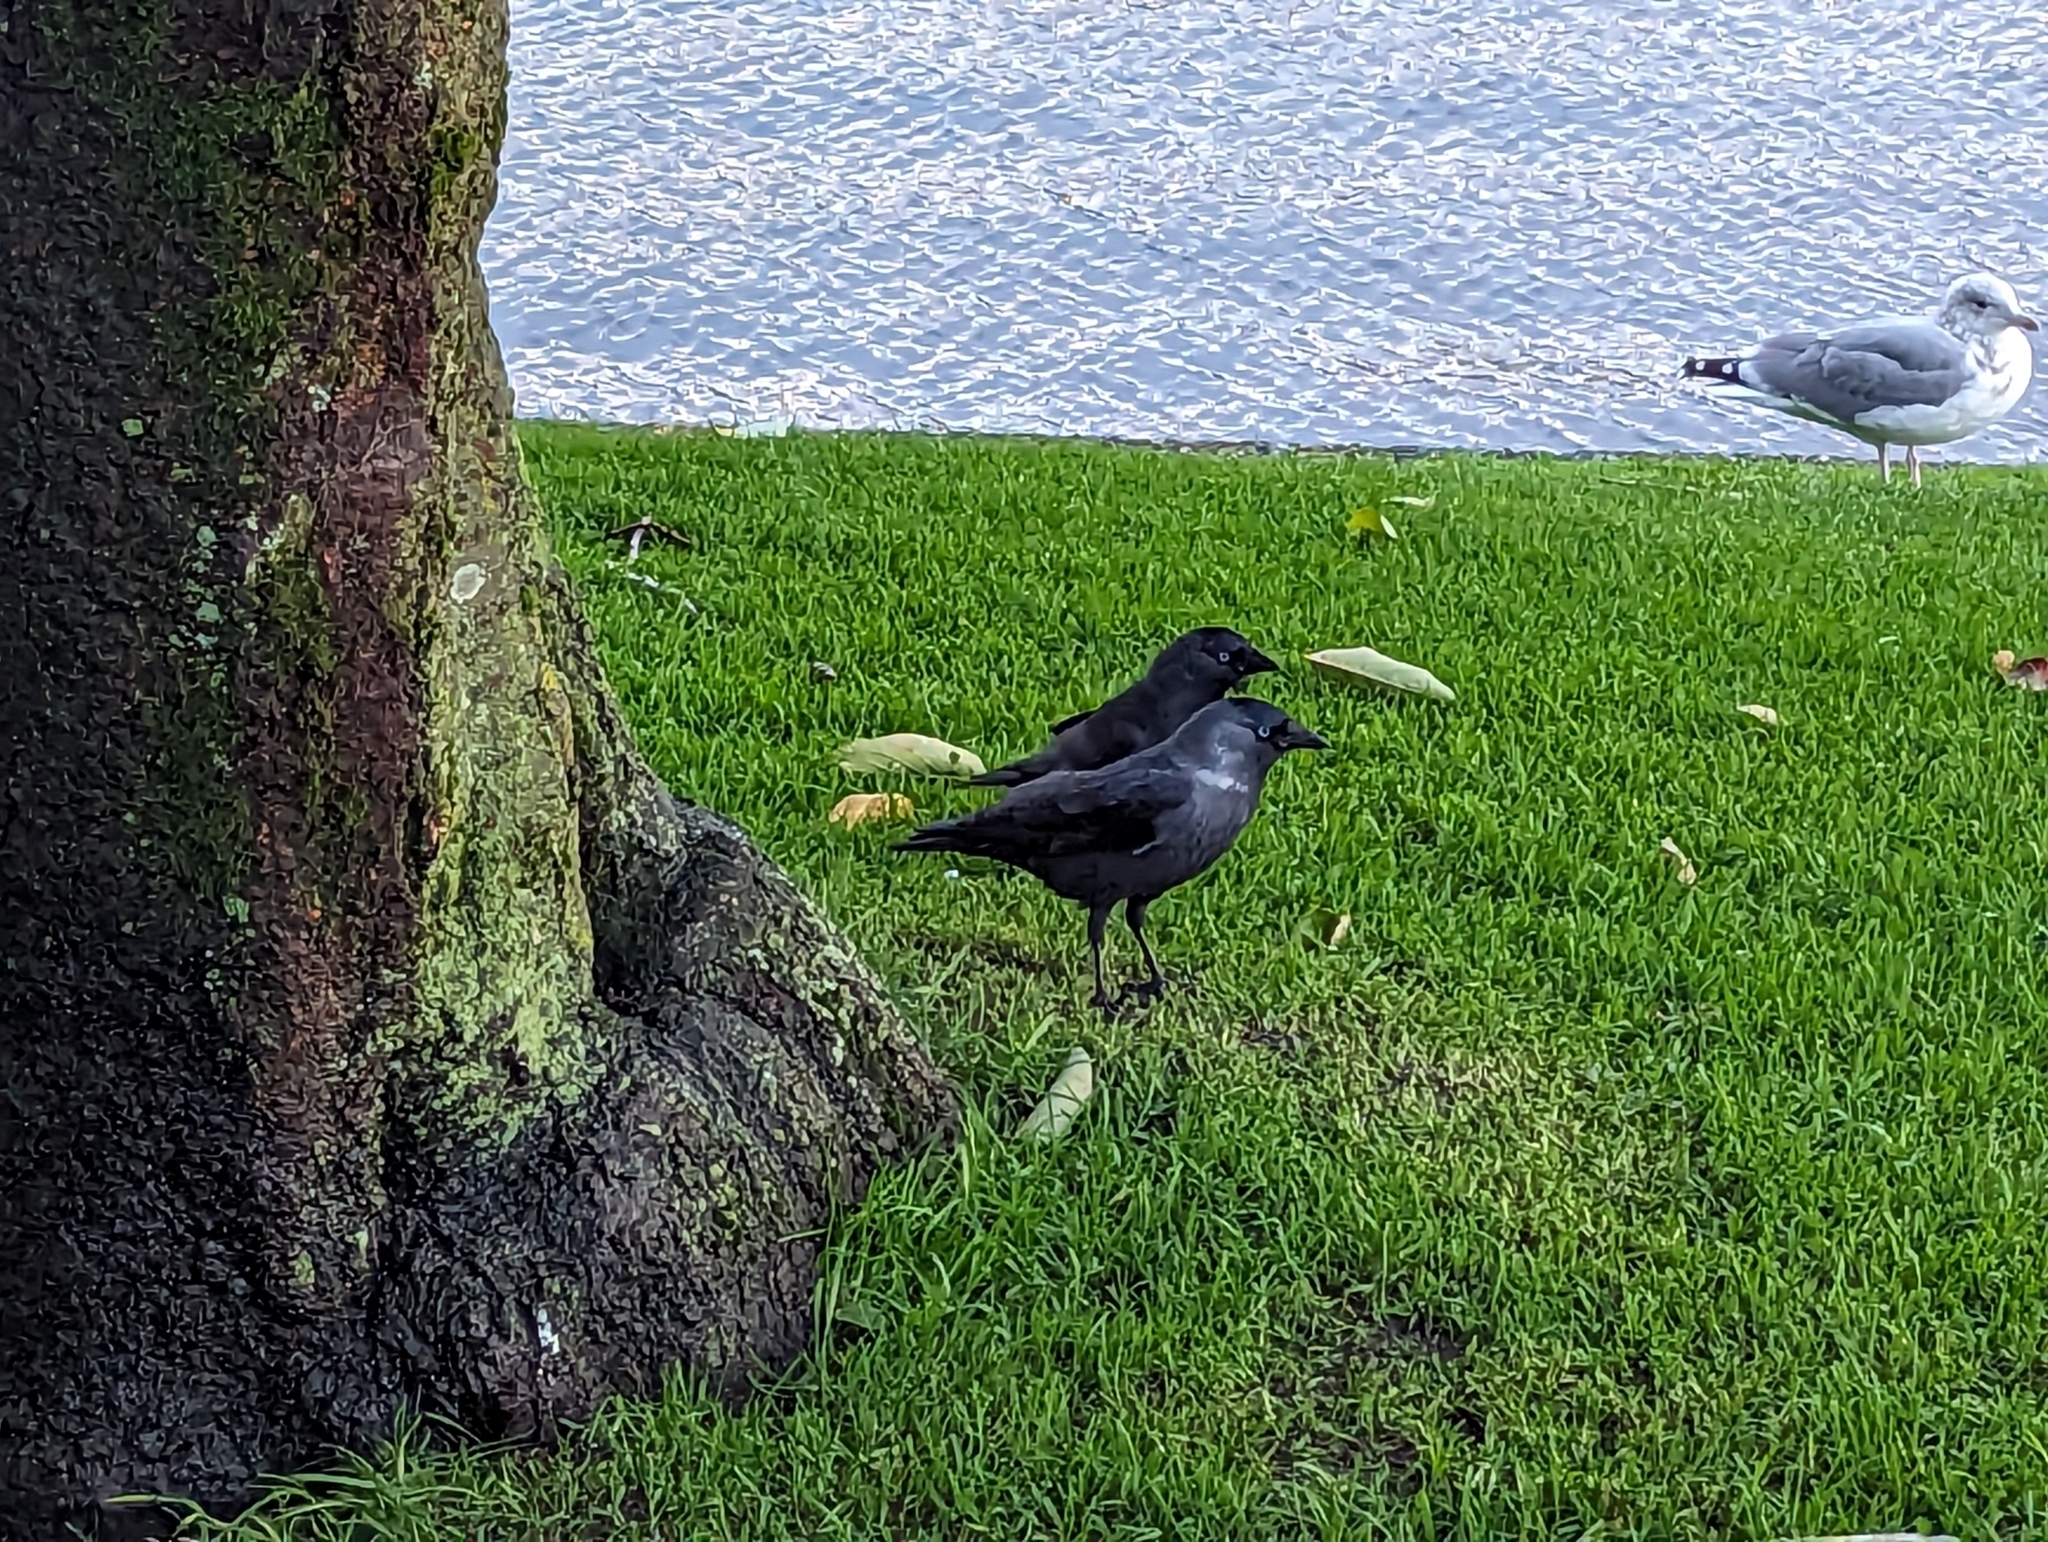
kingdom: Animalia
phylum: Chordata
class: Aves
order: Passeriformes
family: Corvidae
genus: Coloeus
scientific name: Coloeus monedula
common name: Western jackdaw
